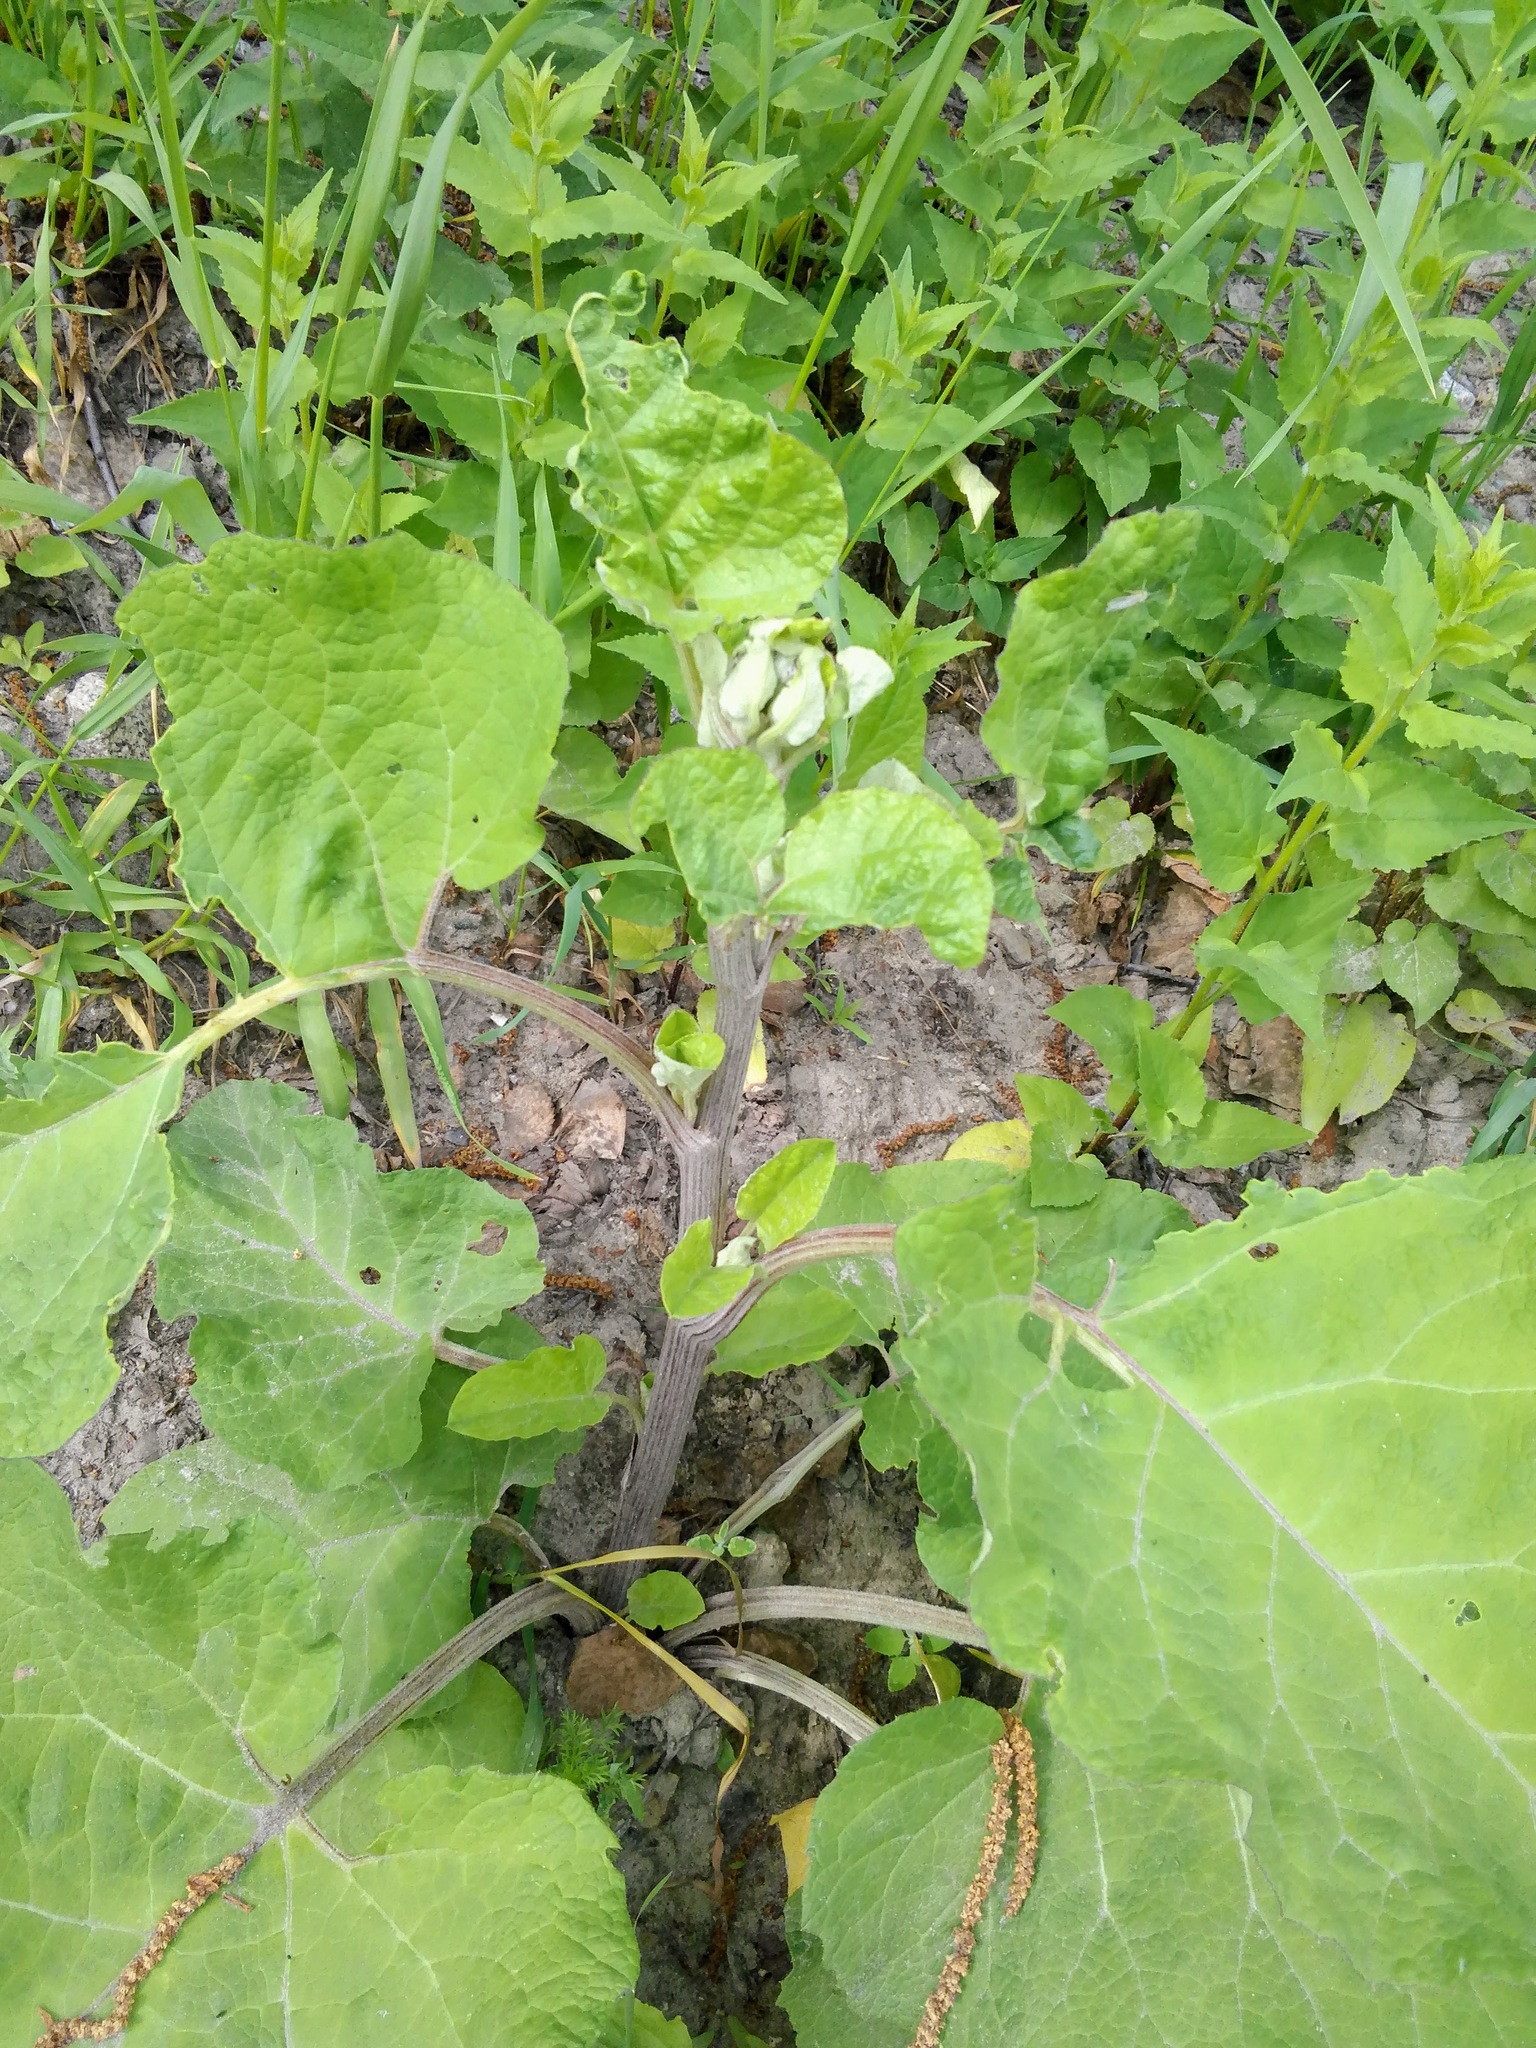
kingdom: Plantae
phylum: Tracheophyta
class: Magnoliopsida
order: Asterales
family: Asteraceae
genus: Arctium
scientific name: Arctium tomentosum
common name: Woolly burdock
